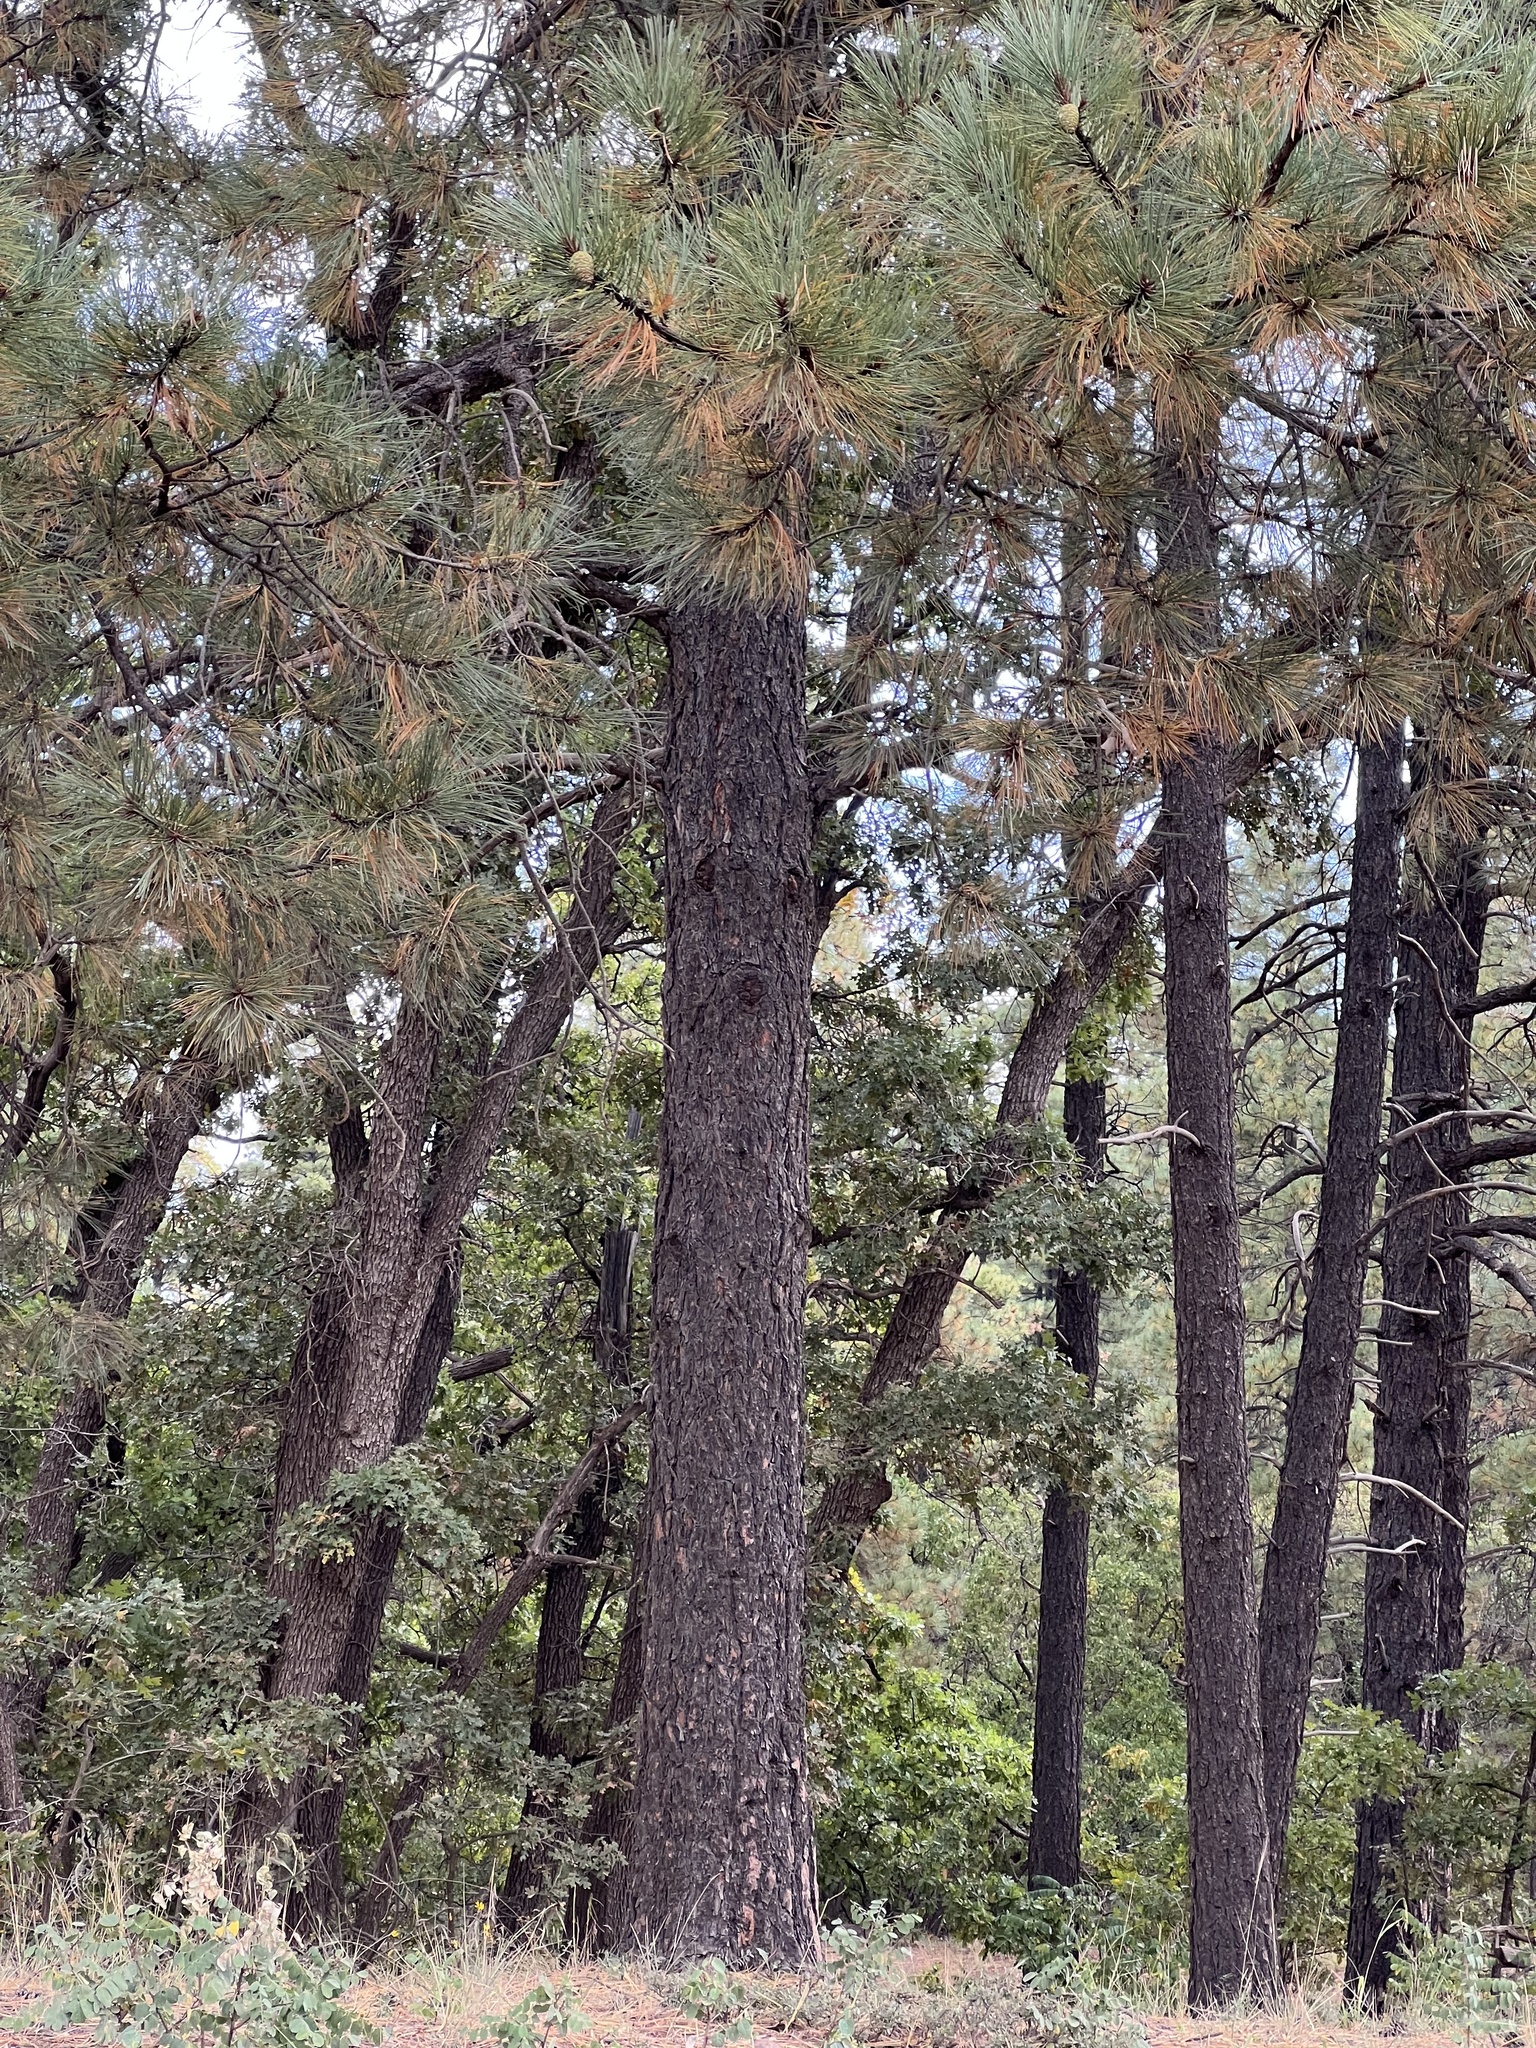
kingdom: Plantae
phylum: Tracheophyta
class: Pinopsida
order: Pinales
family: Pinaceae
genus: Pinus
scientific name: Pinus ponderosa
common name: Western yellow-pine
